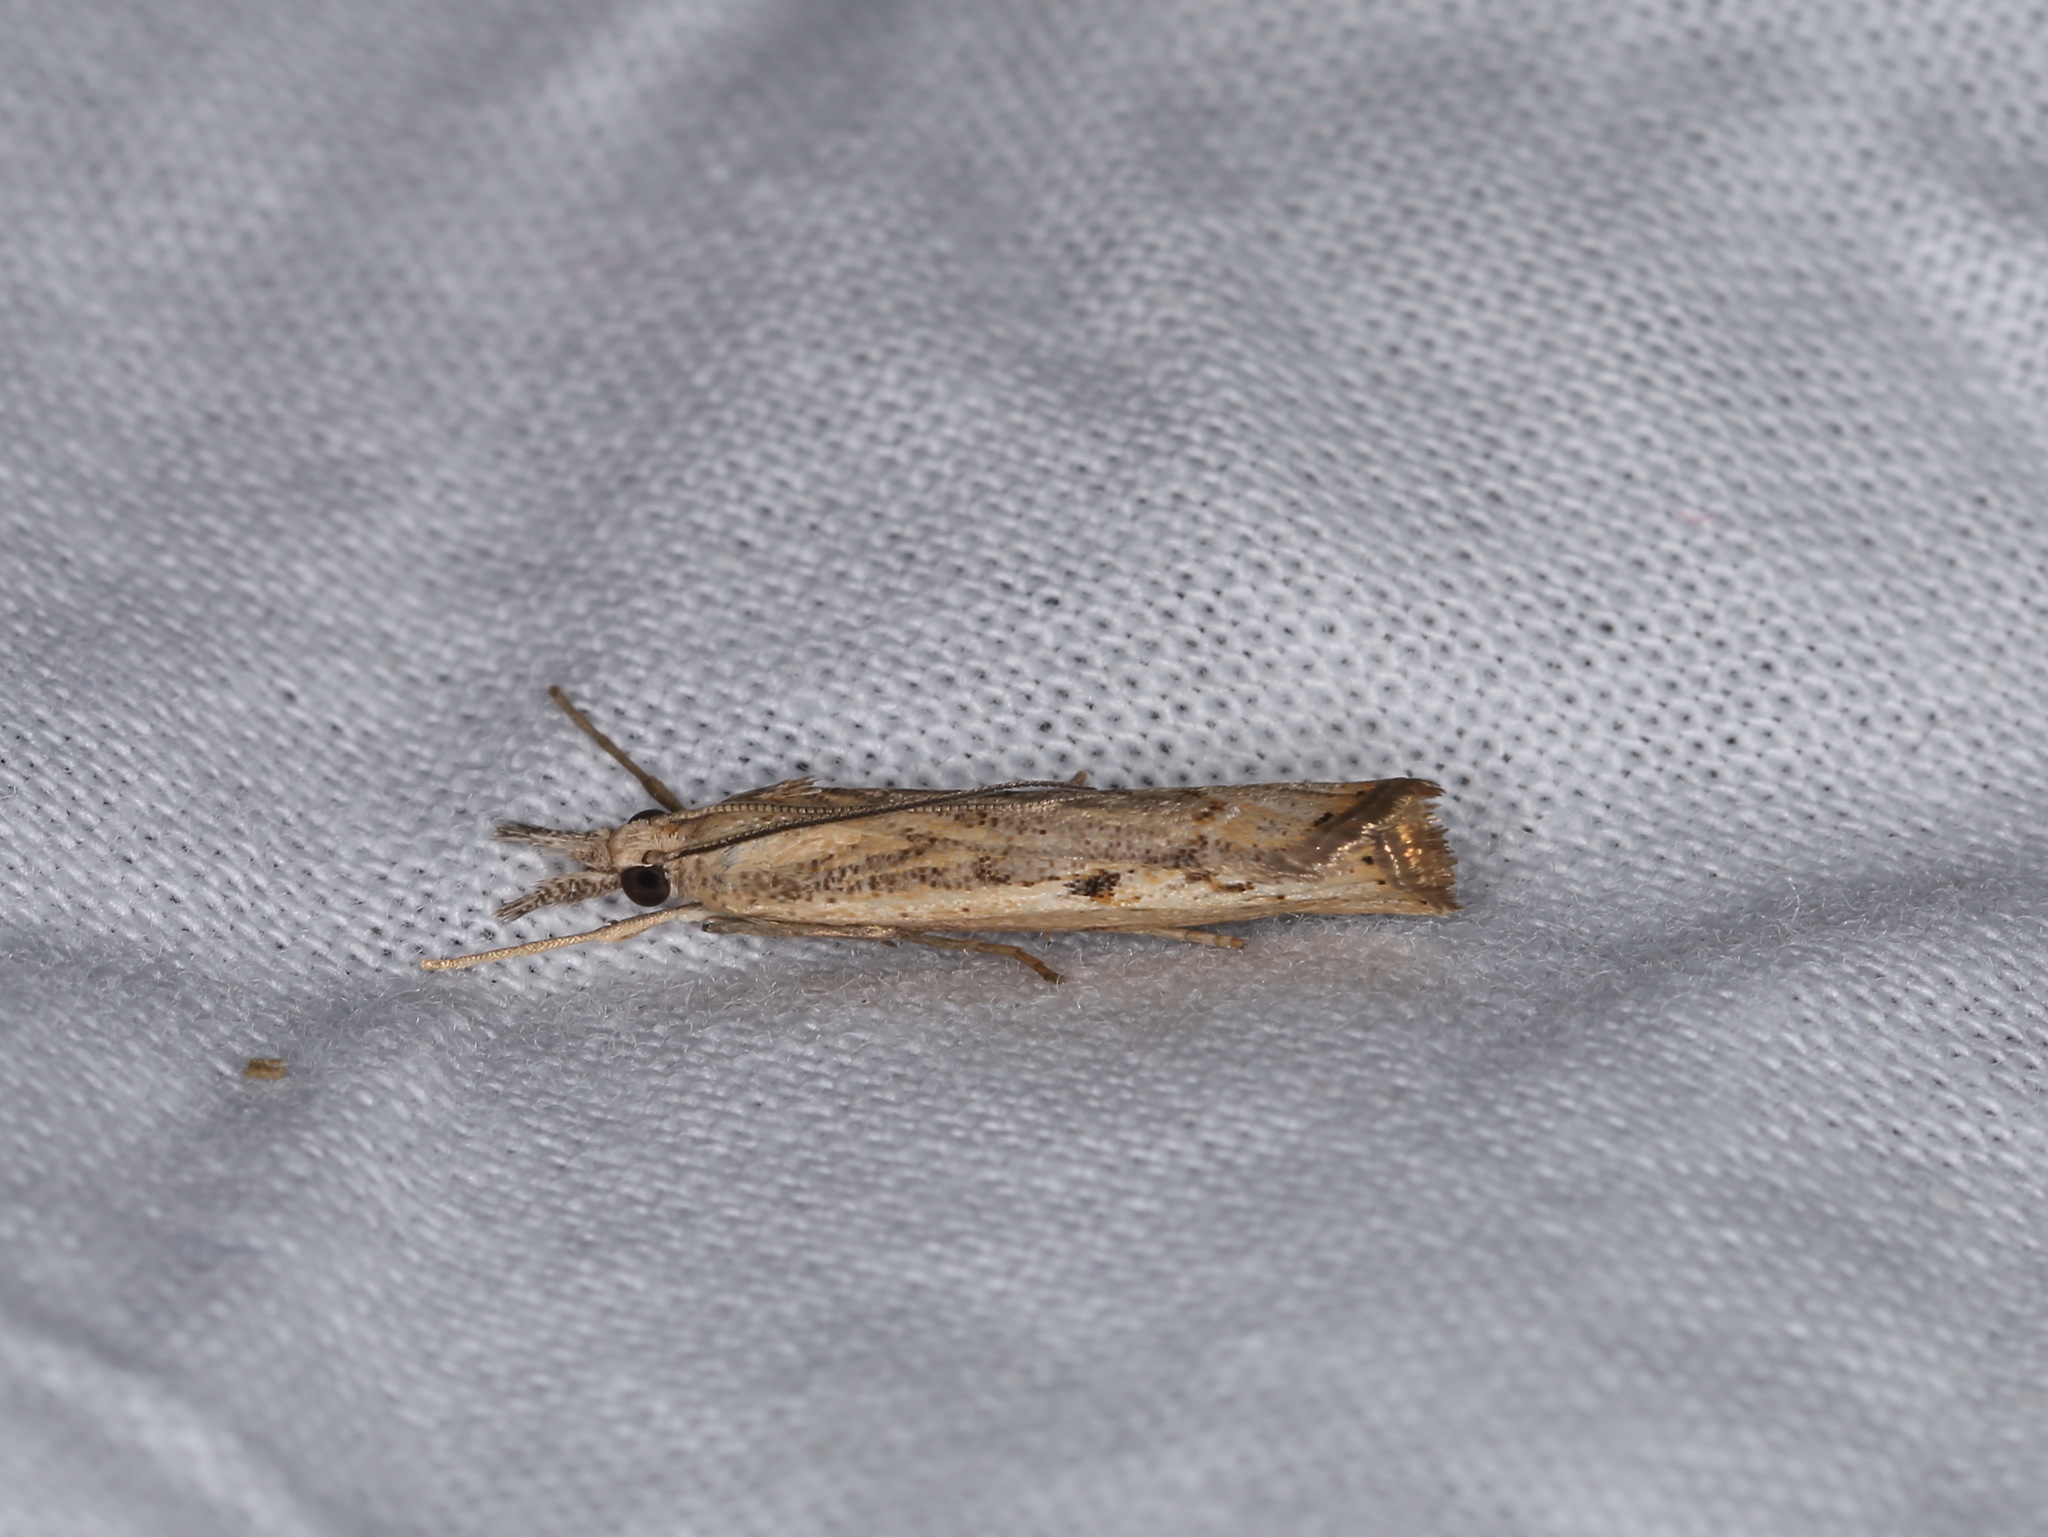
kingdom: Animalia
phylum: Arthropoda
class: Insecta
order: Lepidoptera
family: Crambidae
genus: Agriphila
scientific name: Agriphila geniculea
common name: Elbow-stripe grass-veneer
